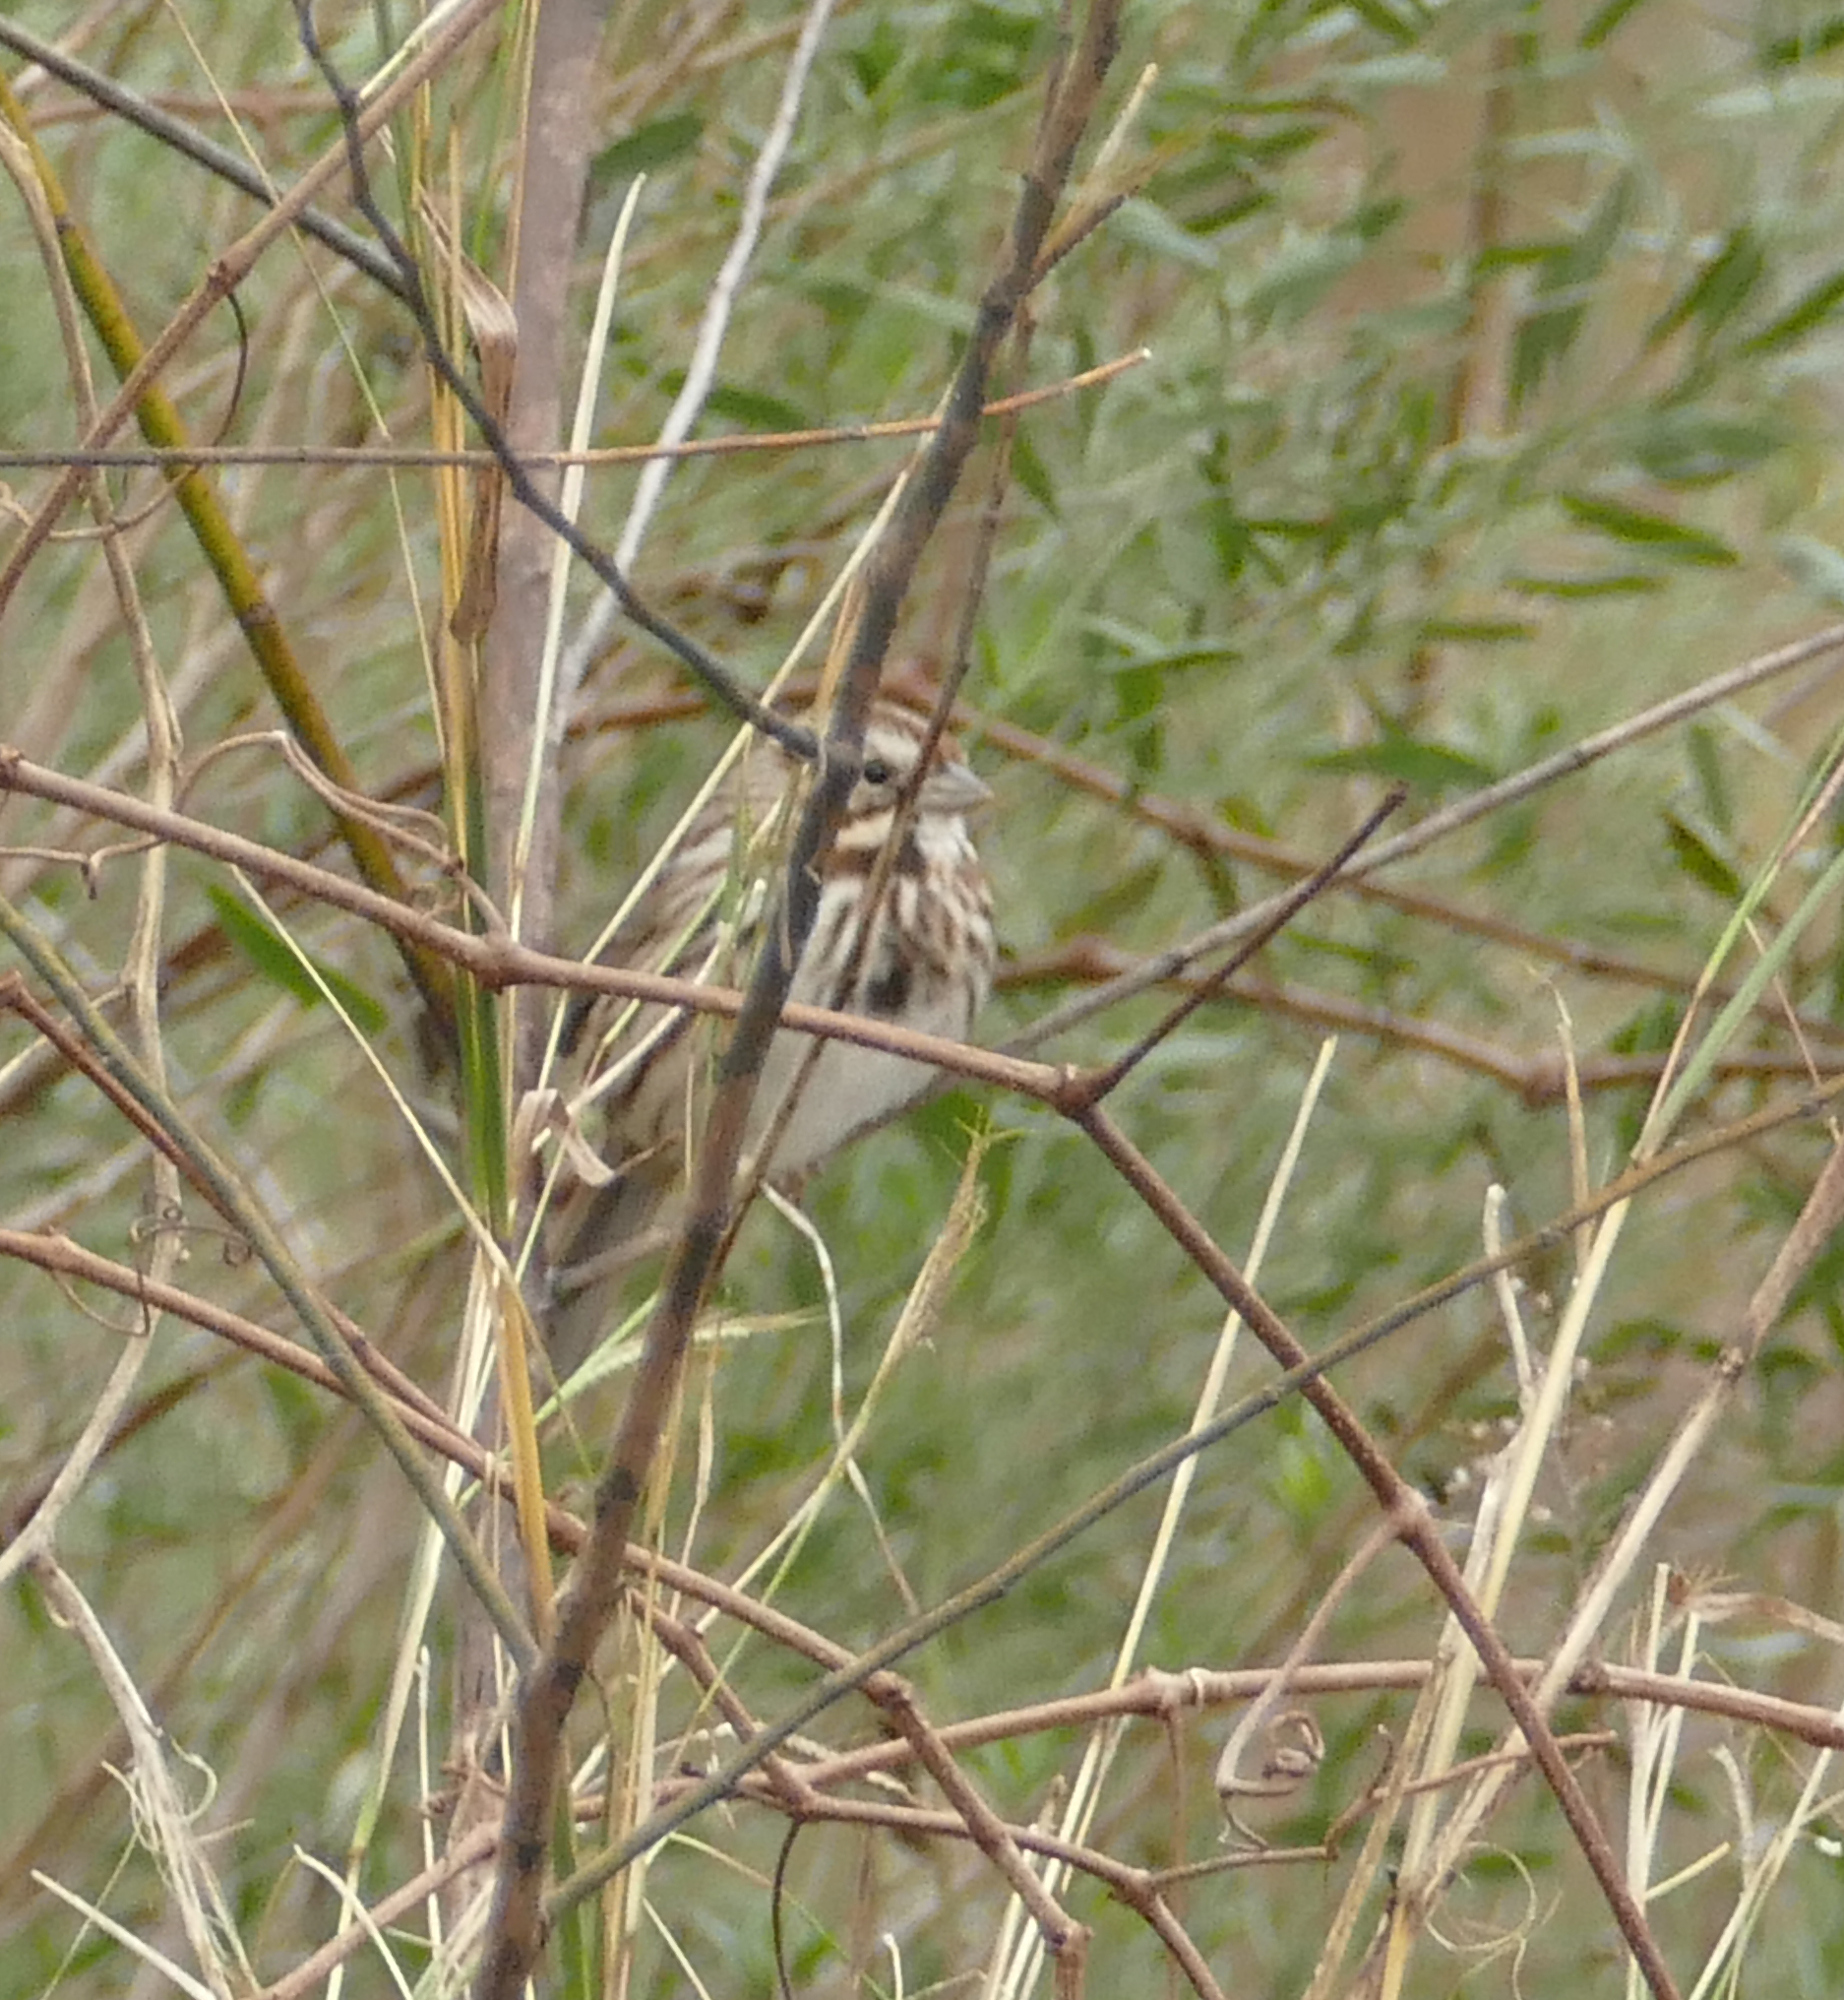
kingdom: Animalia
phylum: Chordata
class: Aves
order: Passeriformes
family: Passerellidae
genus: Melospiza
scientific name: Melospiza melodia
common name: Song sparrow
